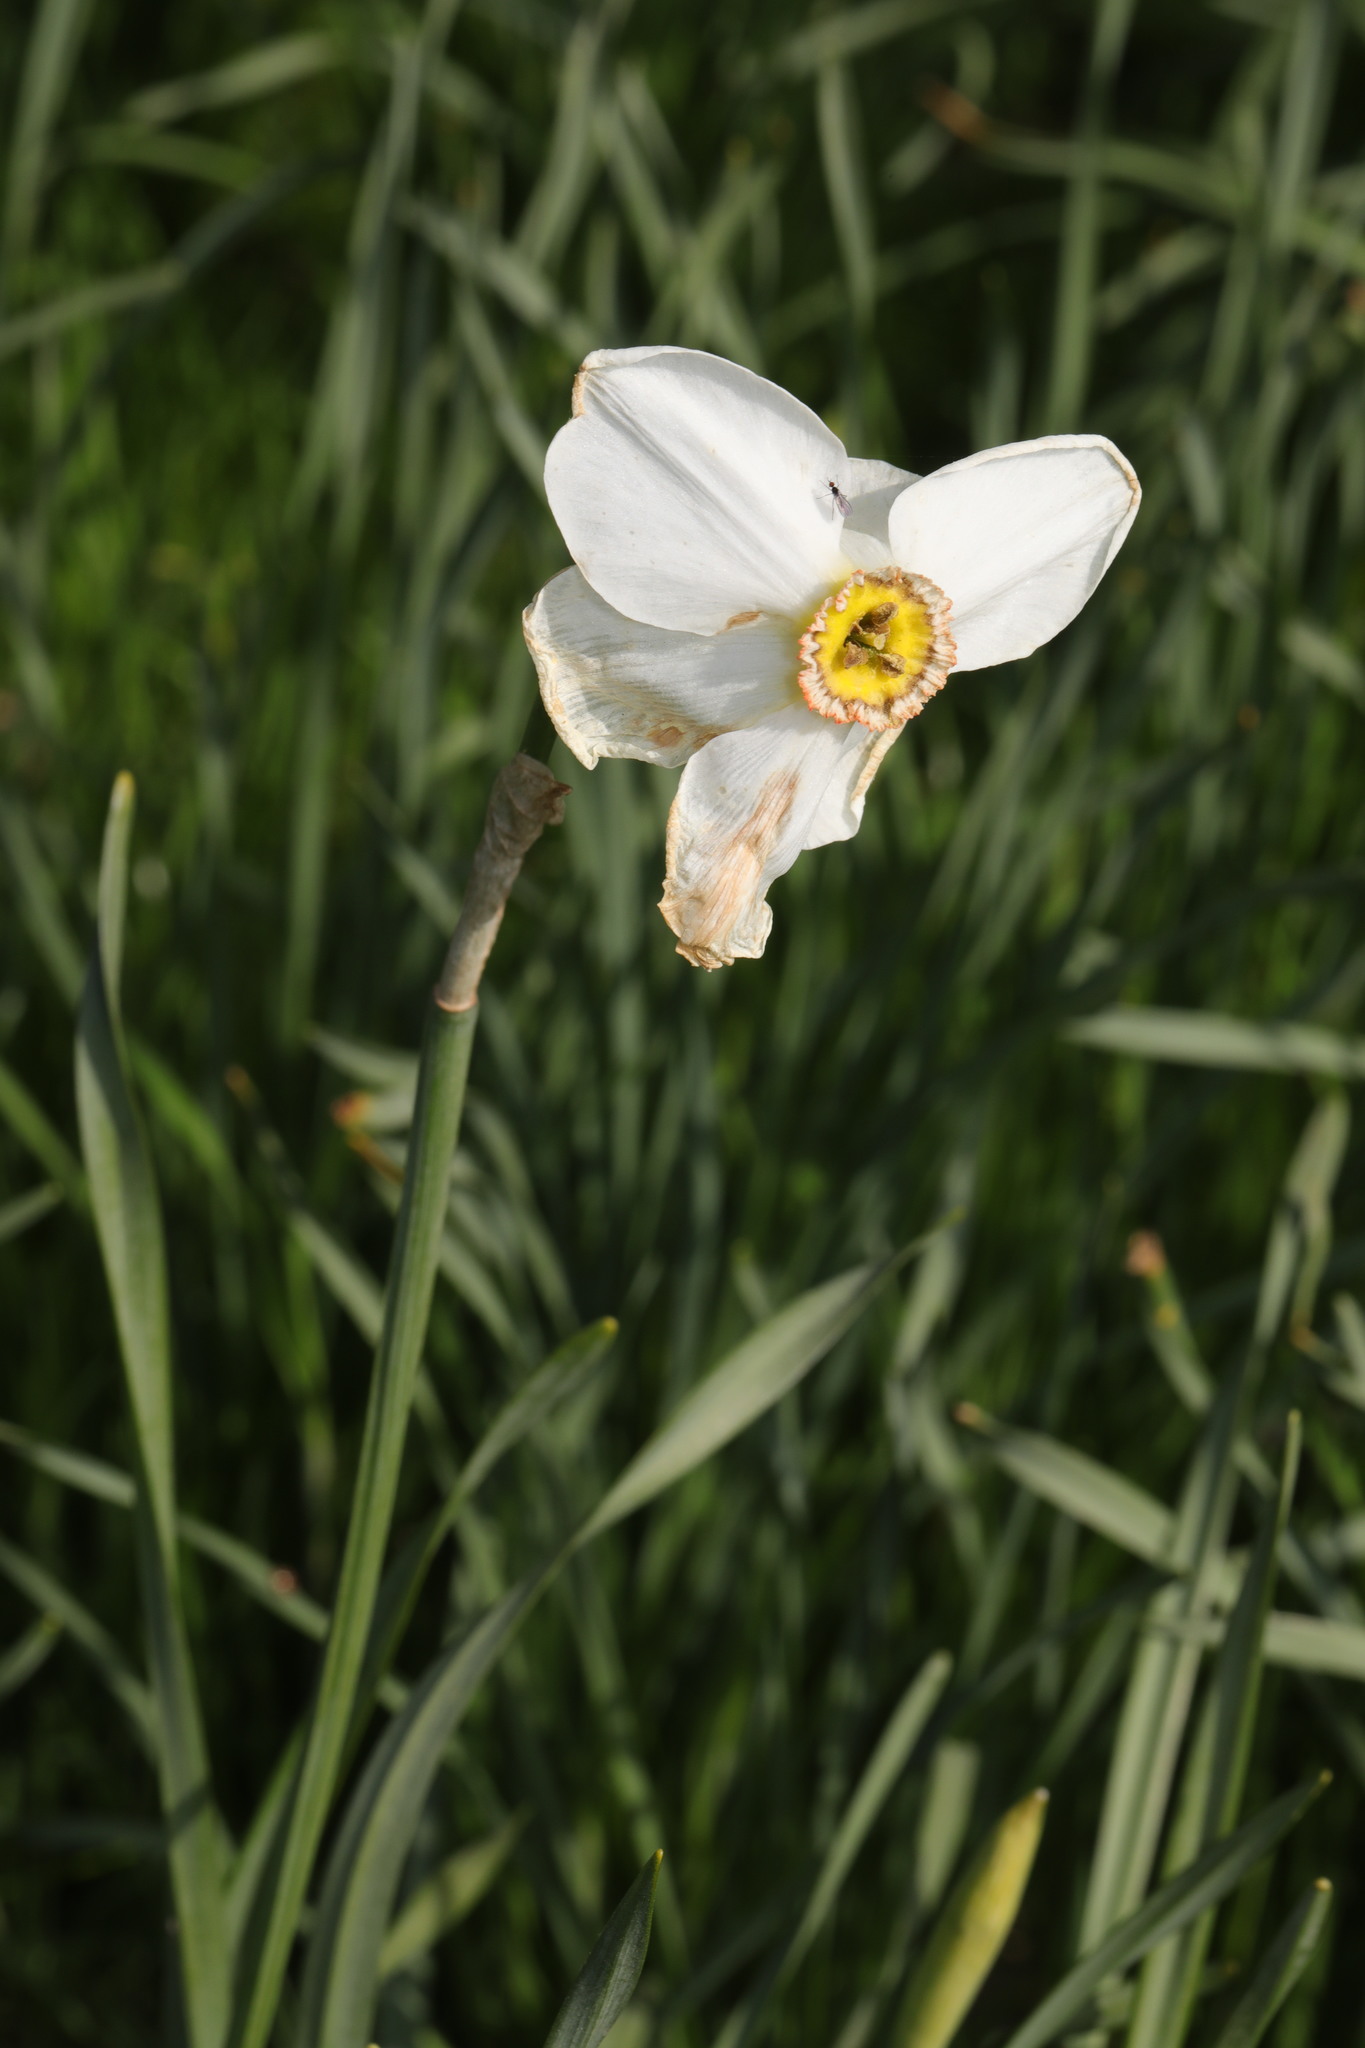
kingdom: Plantae
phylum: Tracheophyta
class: Liliopsida
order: Asparagales
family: Amaryllidaceae
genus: Narcissus
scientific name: Narcissus poeticus
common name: Pheasant's-eye daffodil
